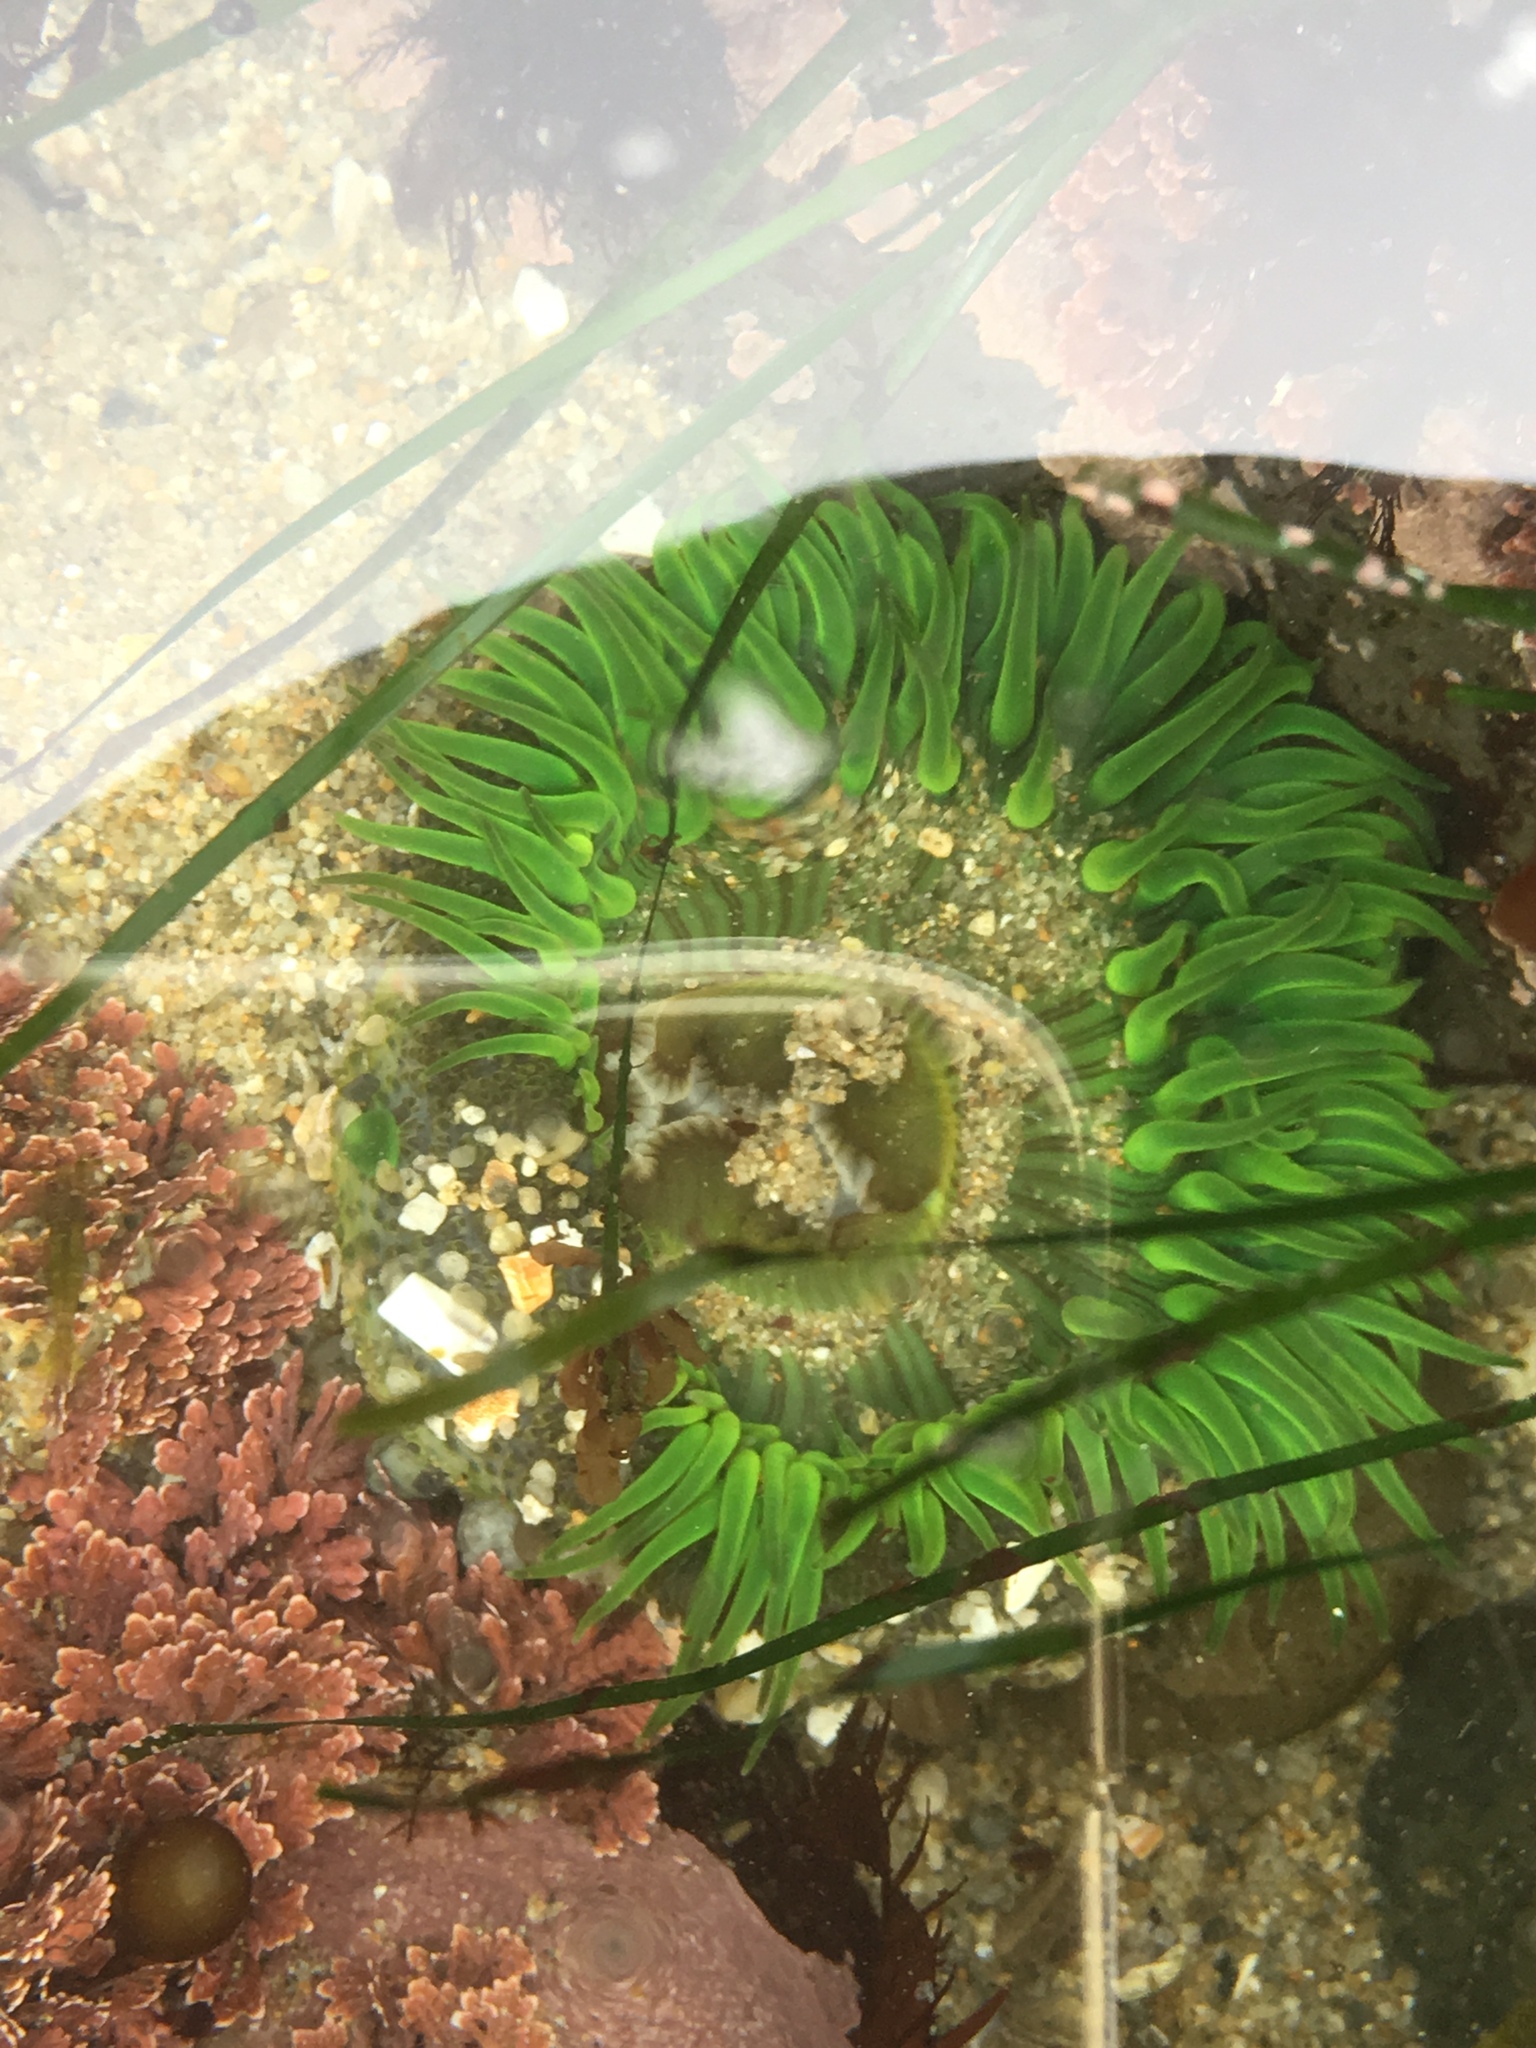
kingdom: Animalia
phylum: Cnidaria
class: Anthozoa
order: Actiniaria
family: Actiniidae
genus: Anthopleura
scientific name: Anthopleura sola
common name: Sun anemone
